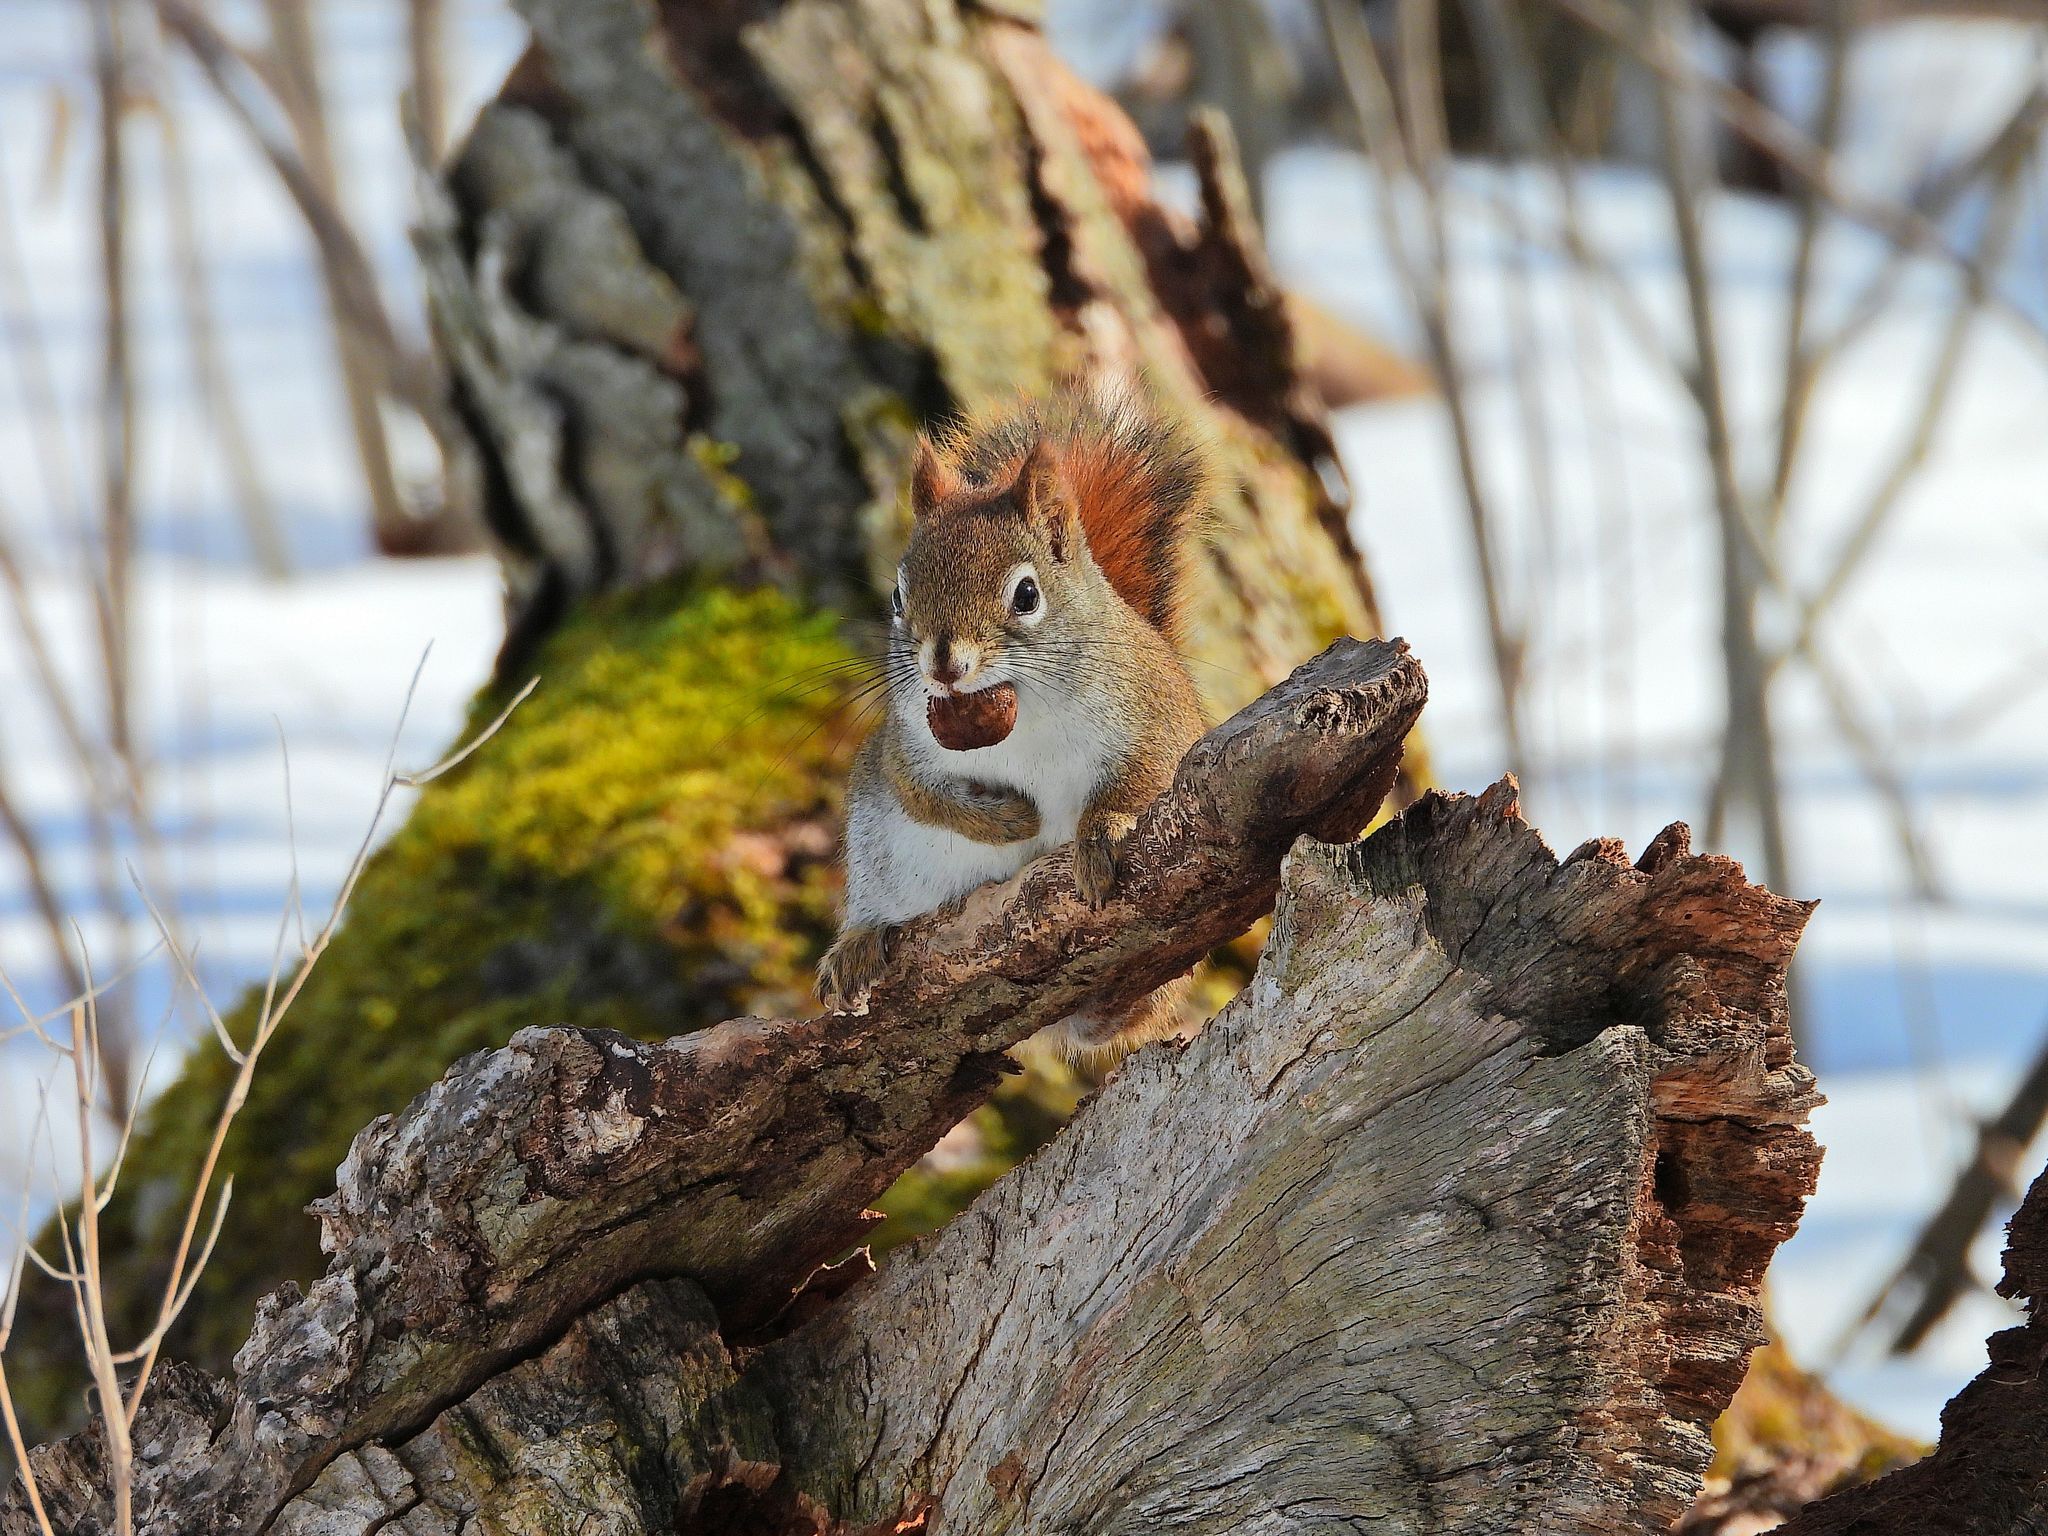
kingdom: Animalia
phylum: Chordata
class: Mammalia
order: Rodentia
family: Sciuridae
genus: Tamiasciurus
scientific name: Tamiasciurus hudsonicus
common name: Red squirrel
